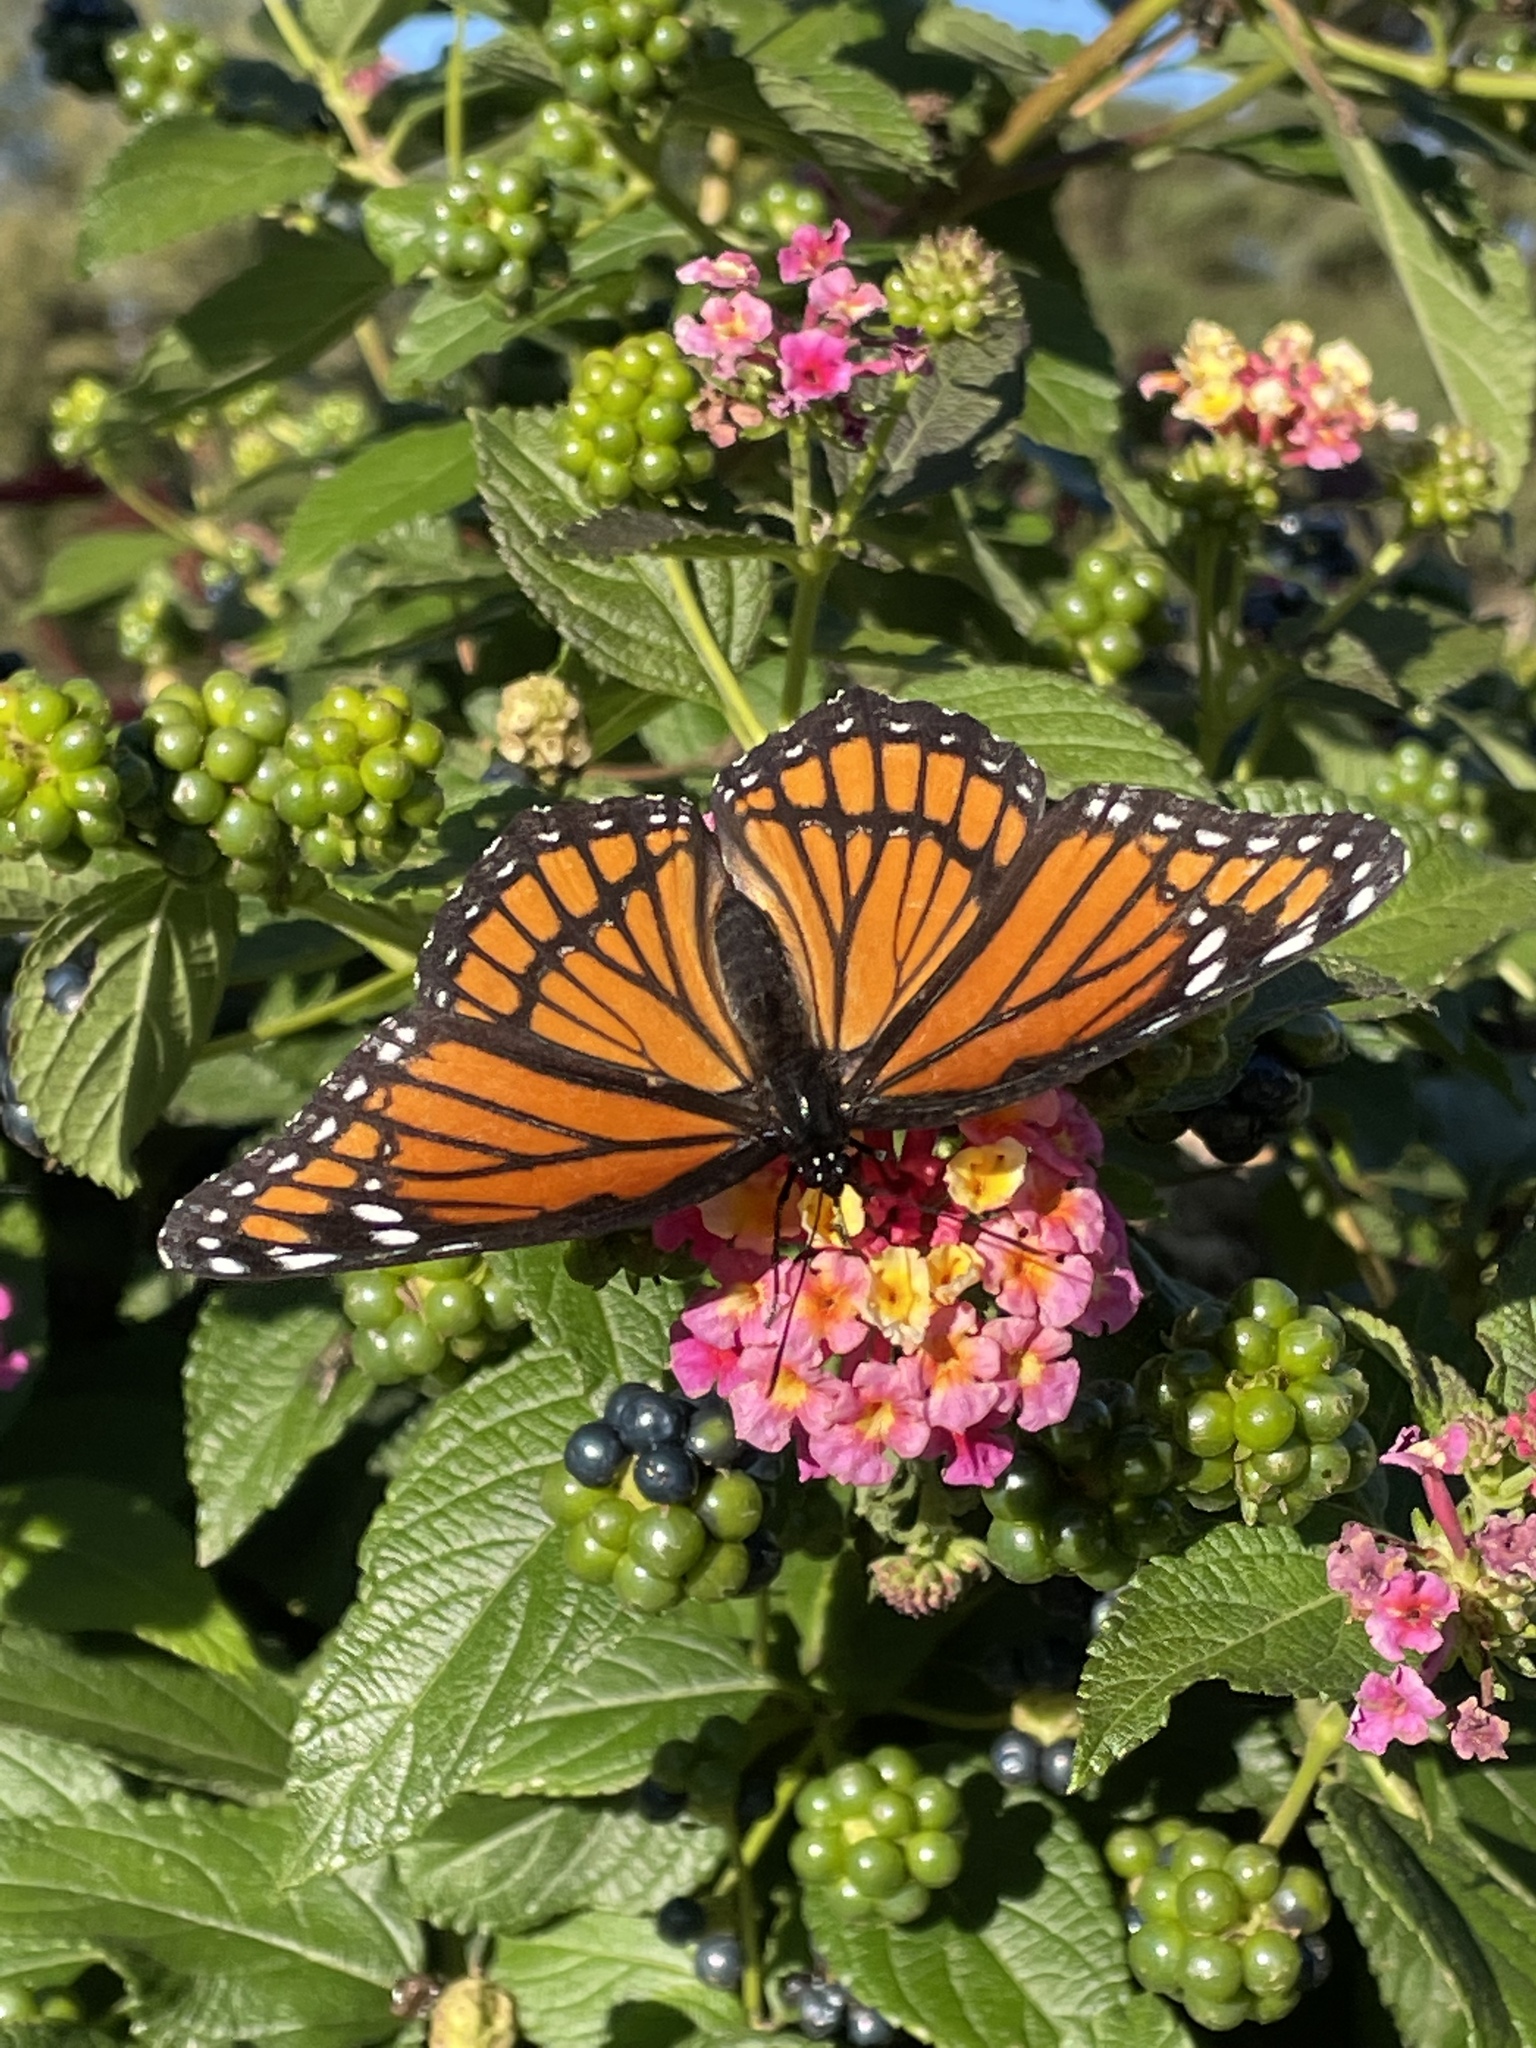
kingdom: Animalia
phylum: Arthropoda
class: Insecta
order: Lepidoptera
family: Nymphalidae
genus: Limenitis
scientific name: Limenitis archippus
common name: Viceroy
